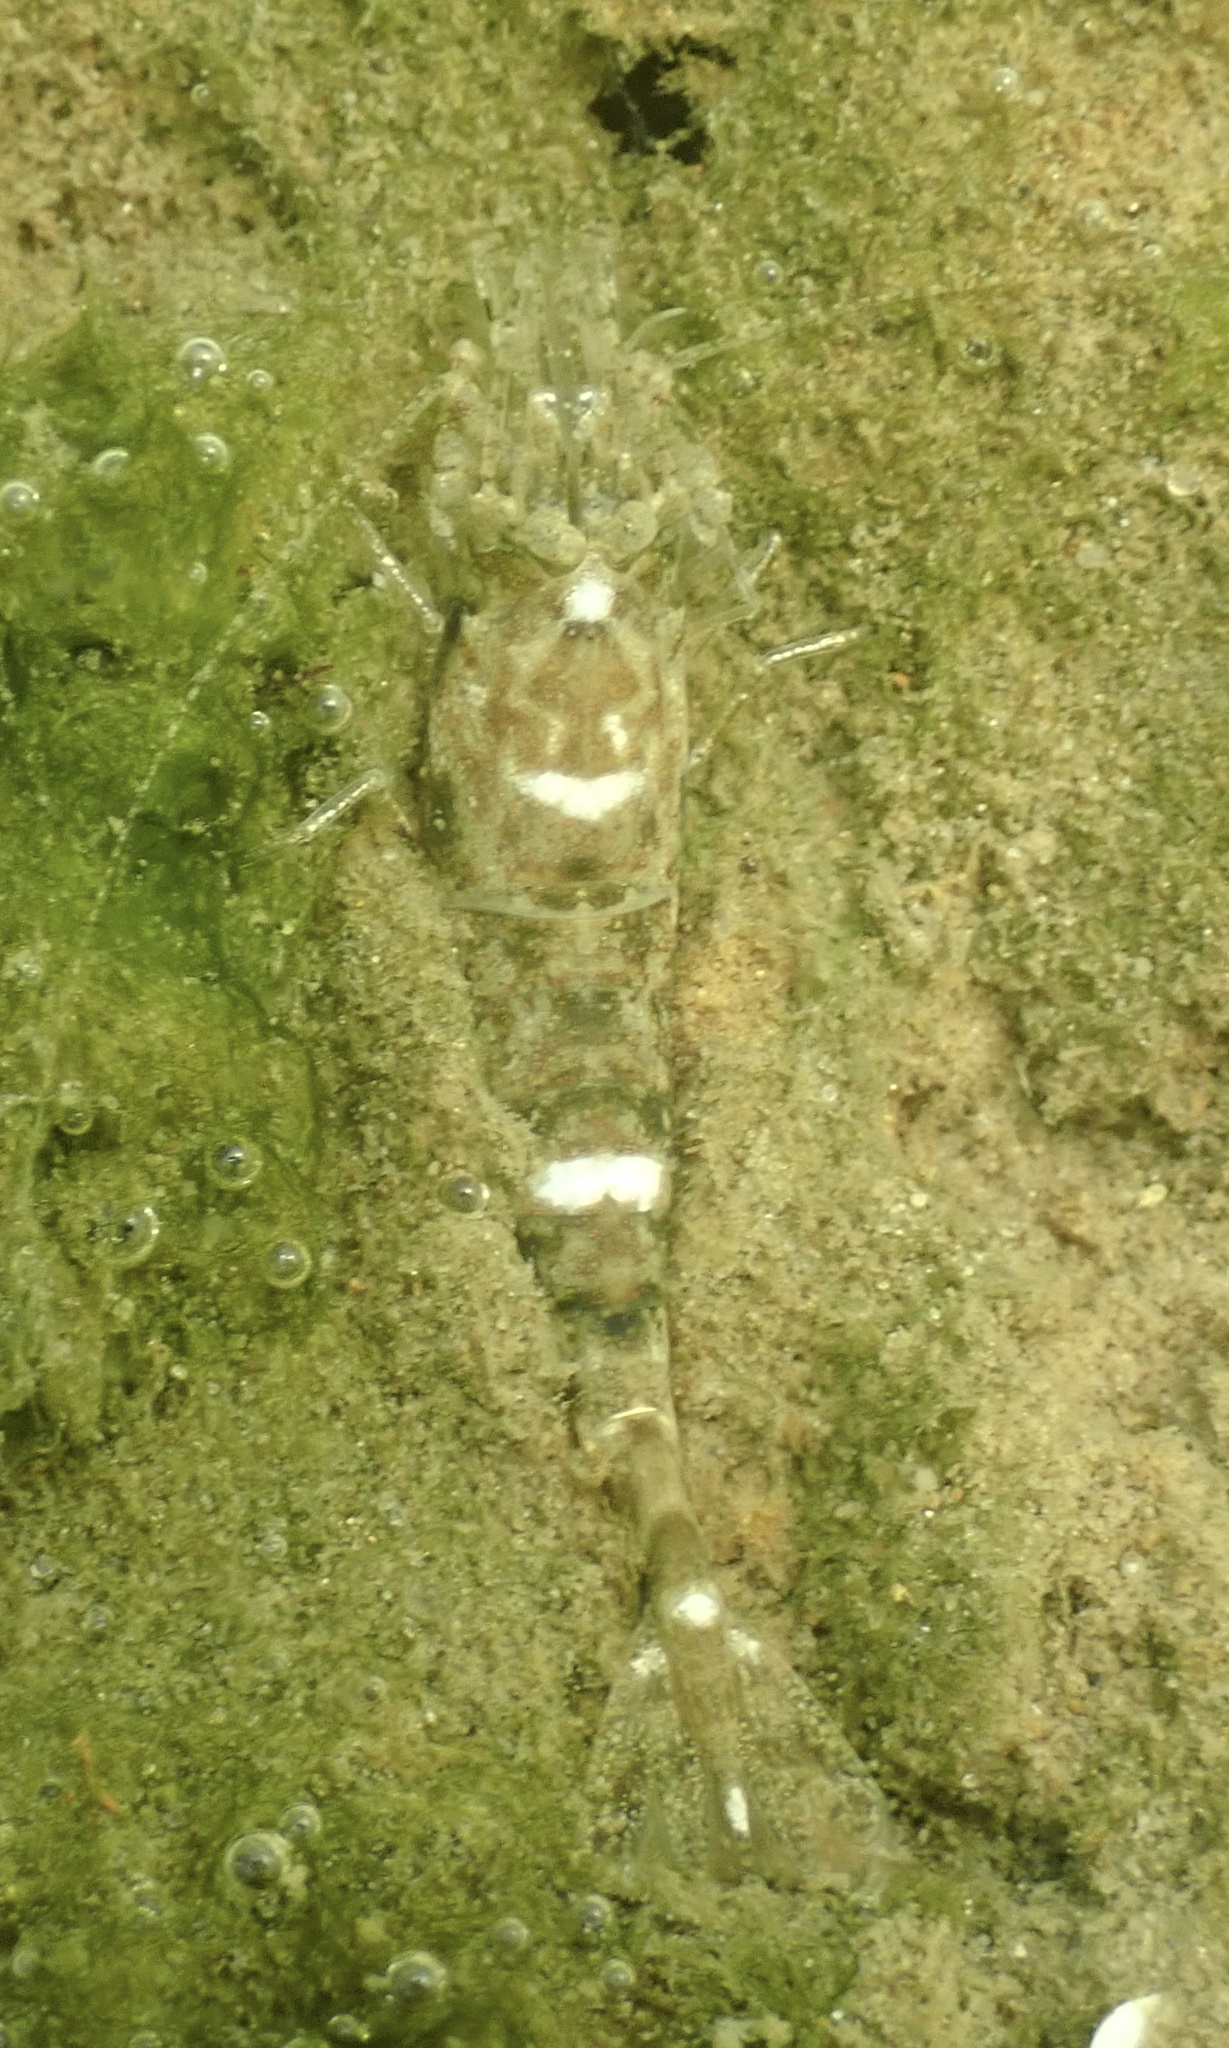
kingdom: Animalia
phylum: Arthropoda
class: Malacostraca
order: Decapoda
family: Crangonidae
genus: Crangon
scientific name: Crangon septemspinosa
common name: Bail shrimp
